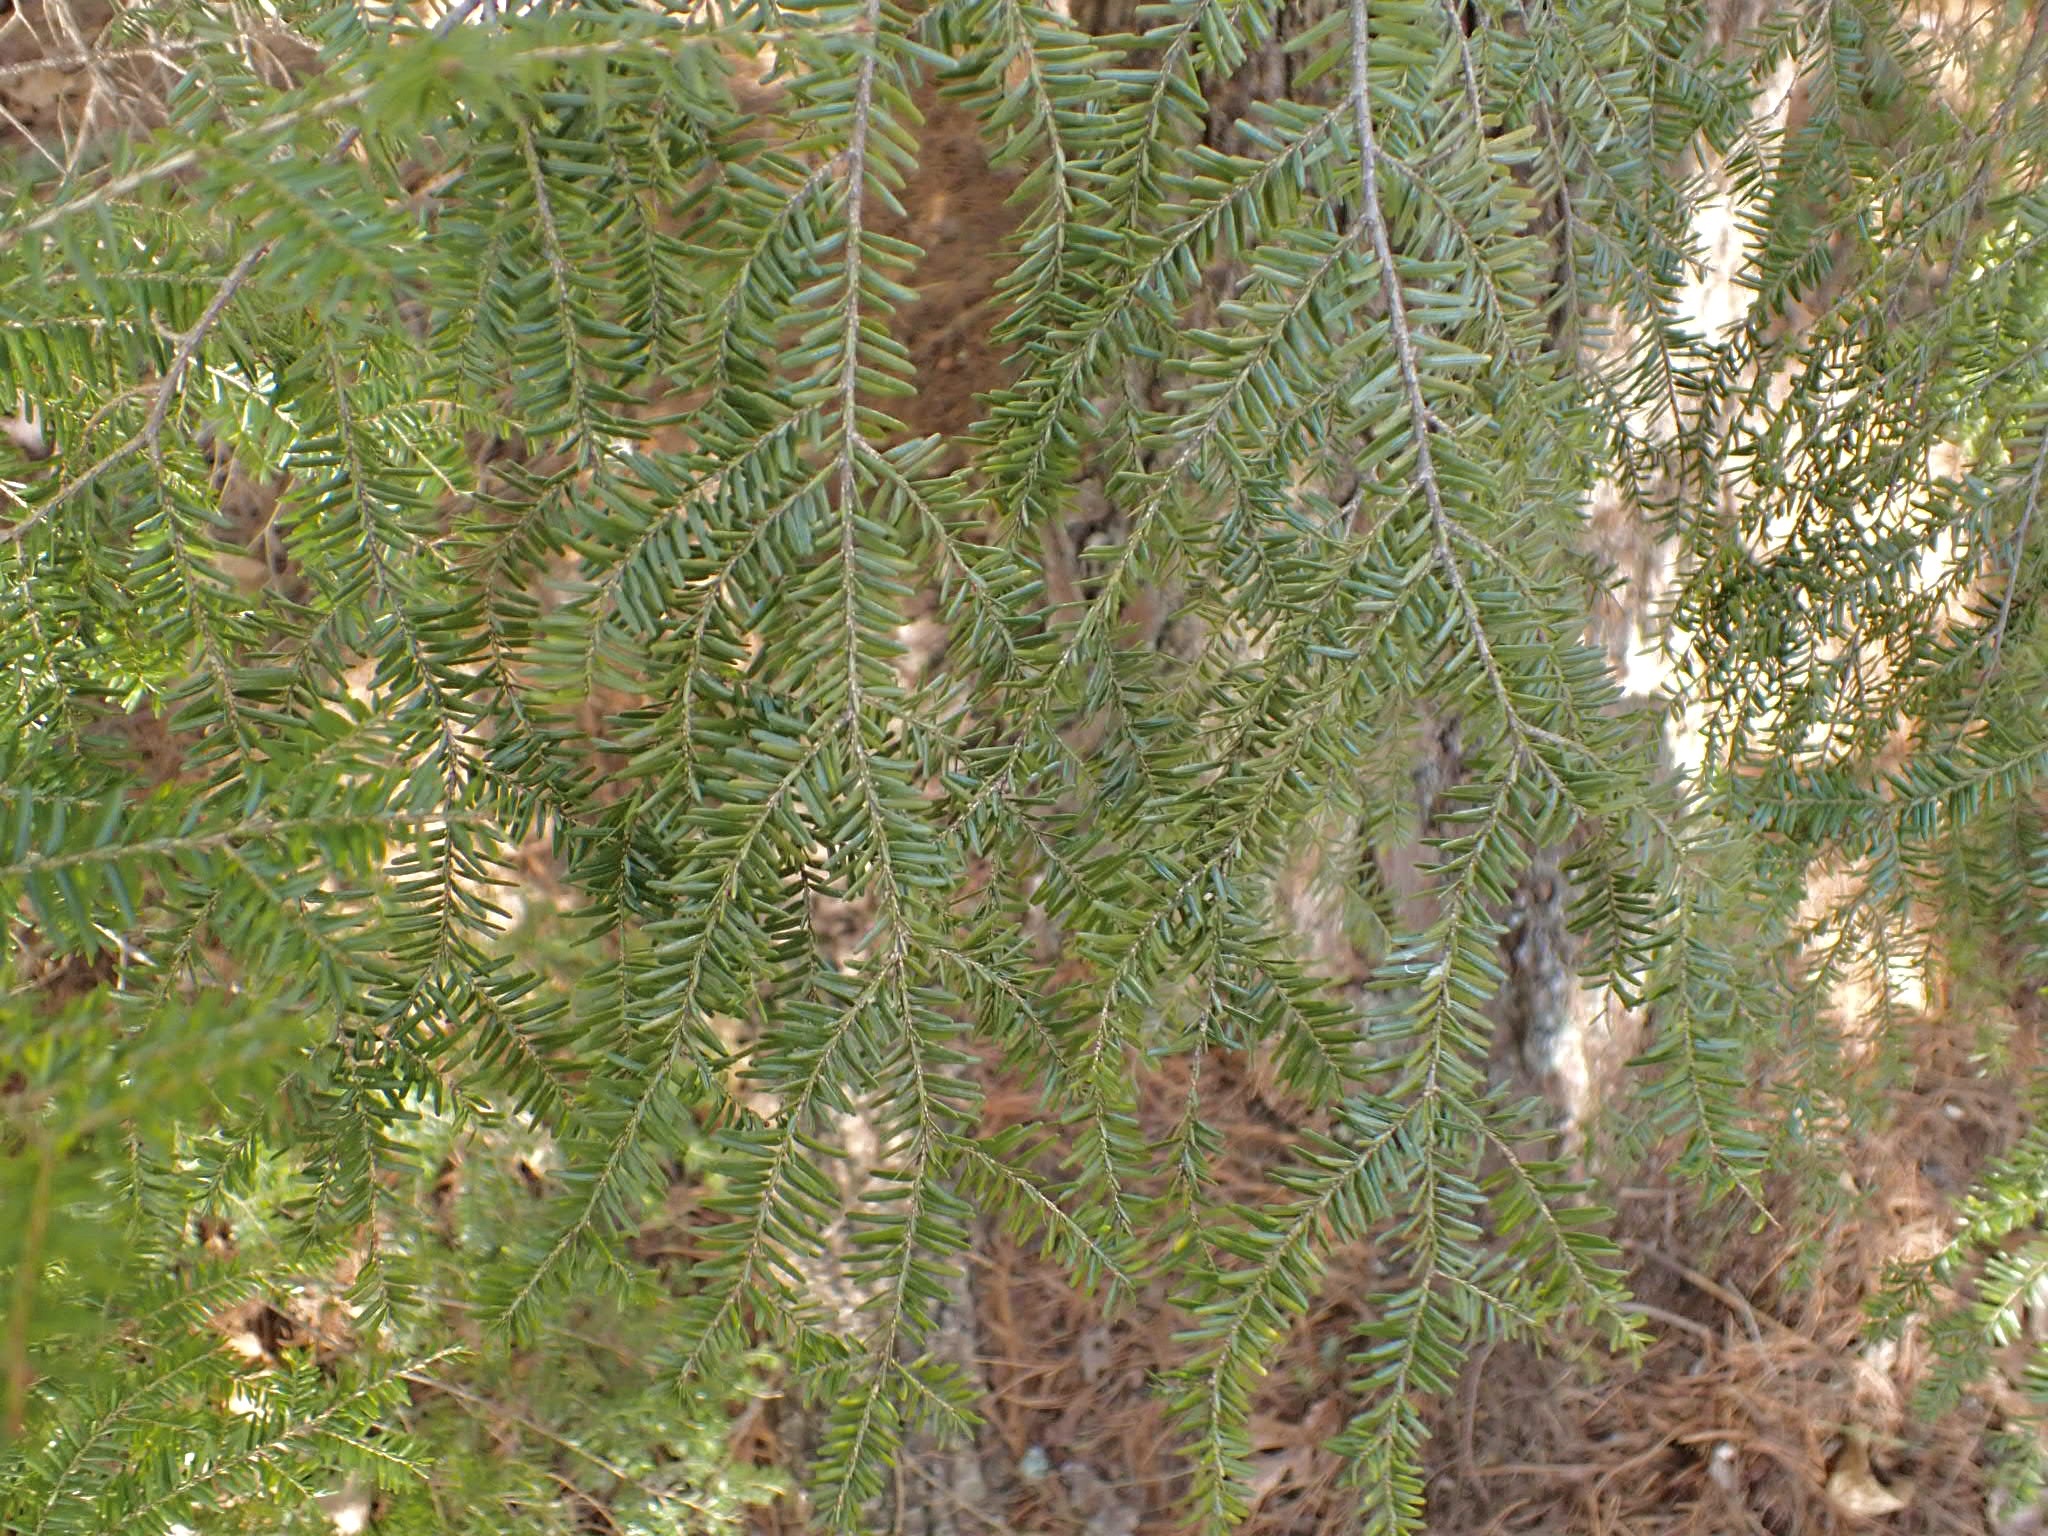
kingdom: Plantae
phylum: Tracheophyta
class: Pinopsida
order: Pinales
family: Pinaceae
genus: Tsuga
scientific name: Tsuga canadensis
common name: Eastern hemlock
